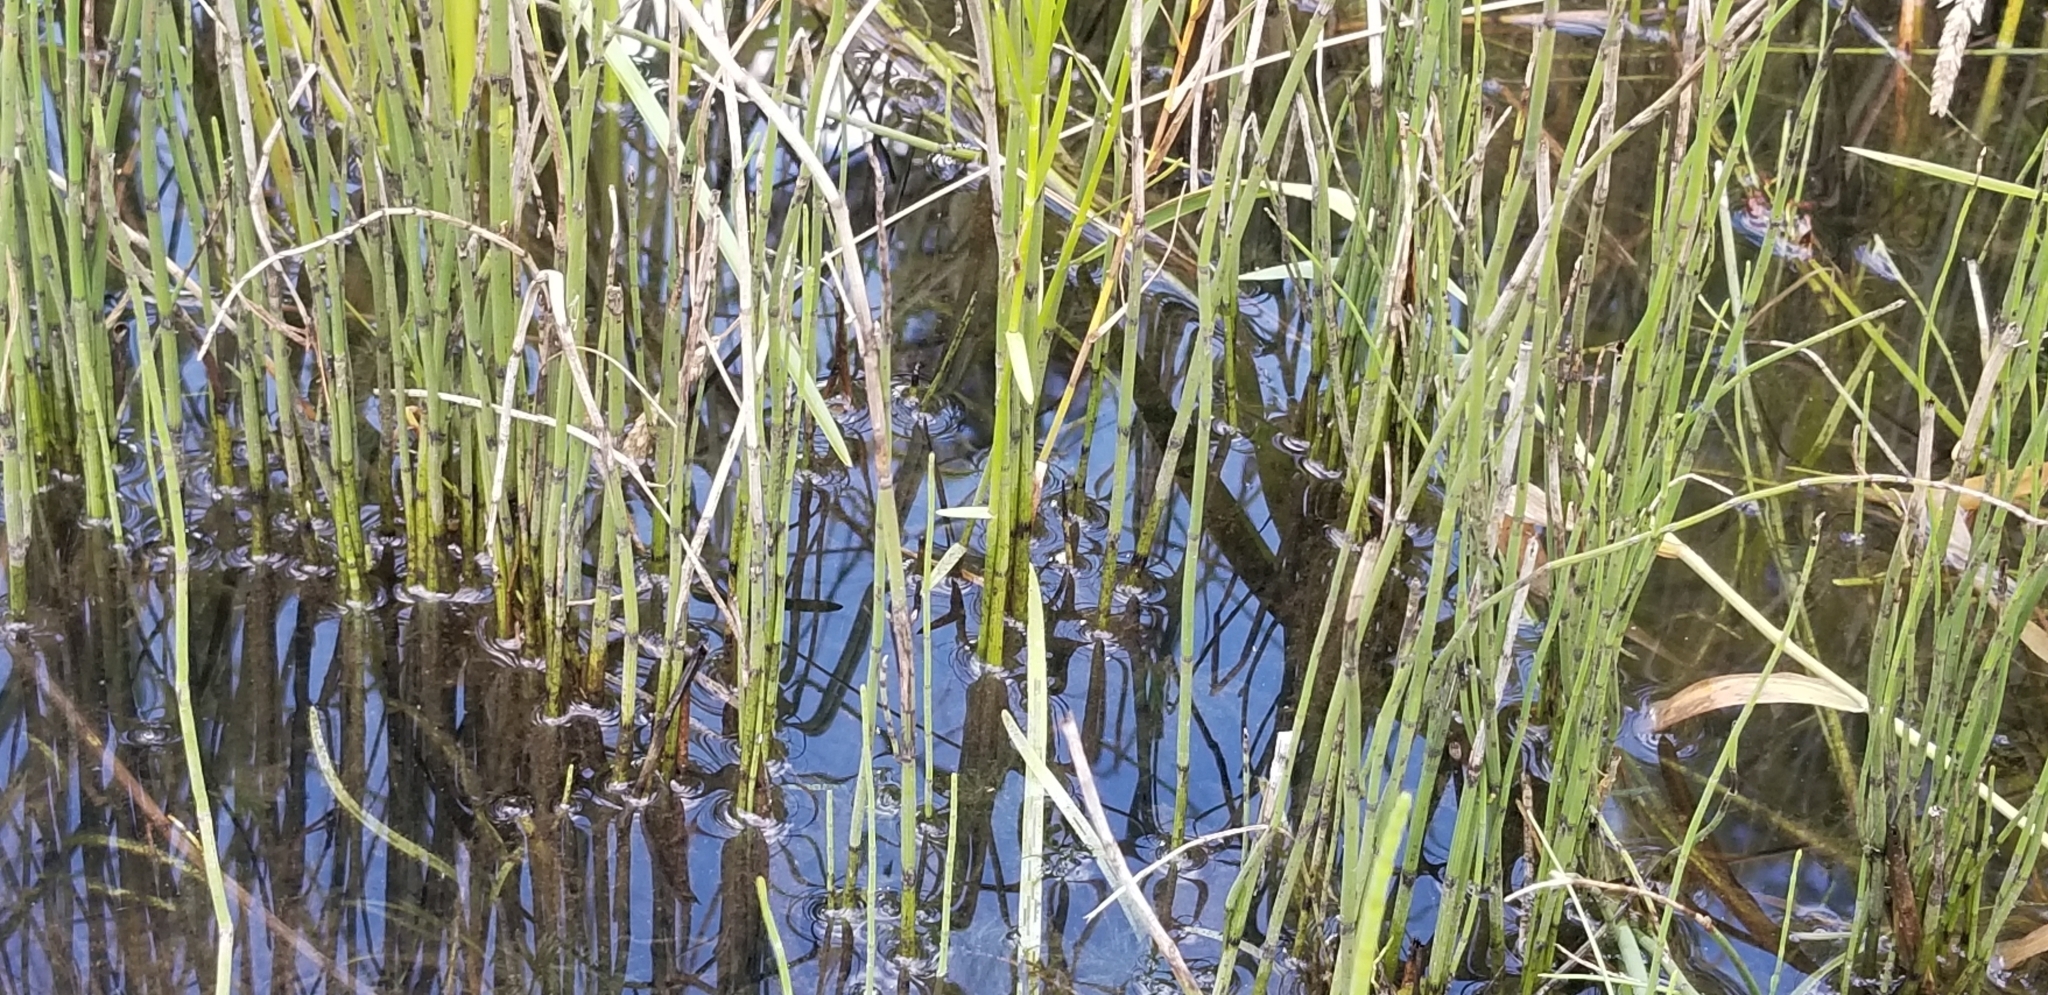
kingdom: Plantae
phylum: Tracheophyta
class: Polypodiopsida
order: Equisetales
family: Equisetaceae
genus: Equisetum
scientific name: Equisetum fluviatile
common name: Water horsetail
